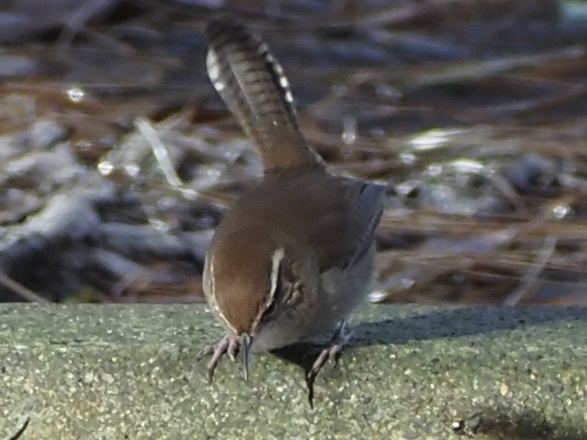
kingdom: Animalia
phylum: Chordata
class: Aves
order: Passeriformes
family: Troglodytidae
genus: Thryomanes
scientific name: Thryomanes bewickii
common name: Bewick's wren
